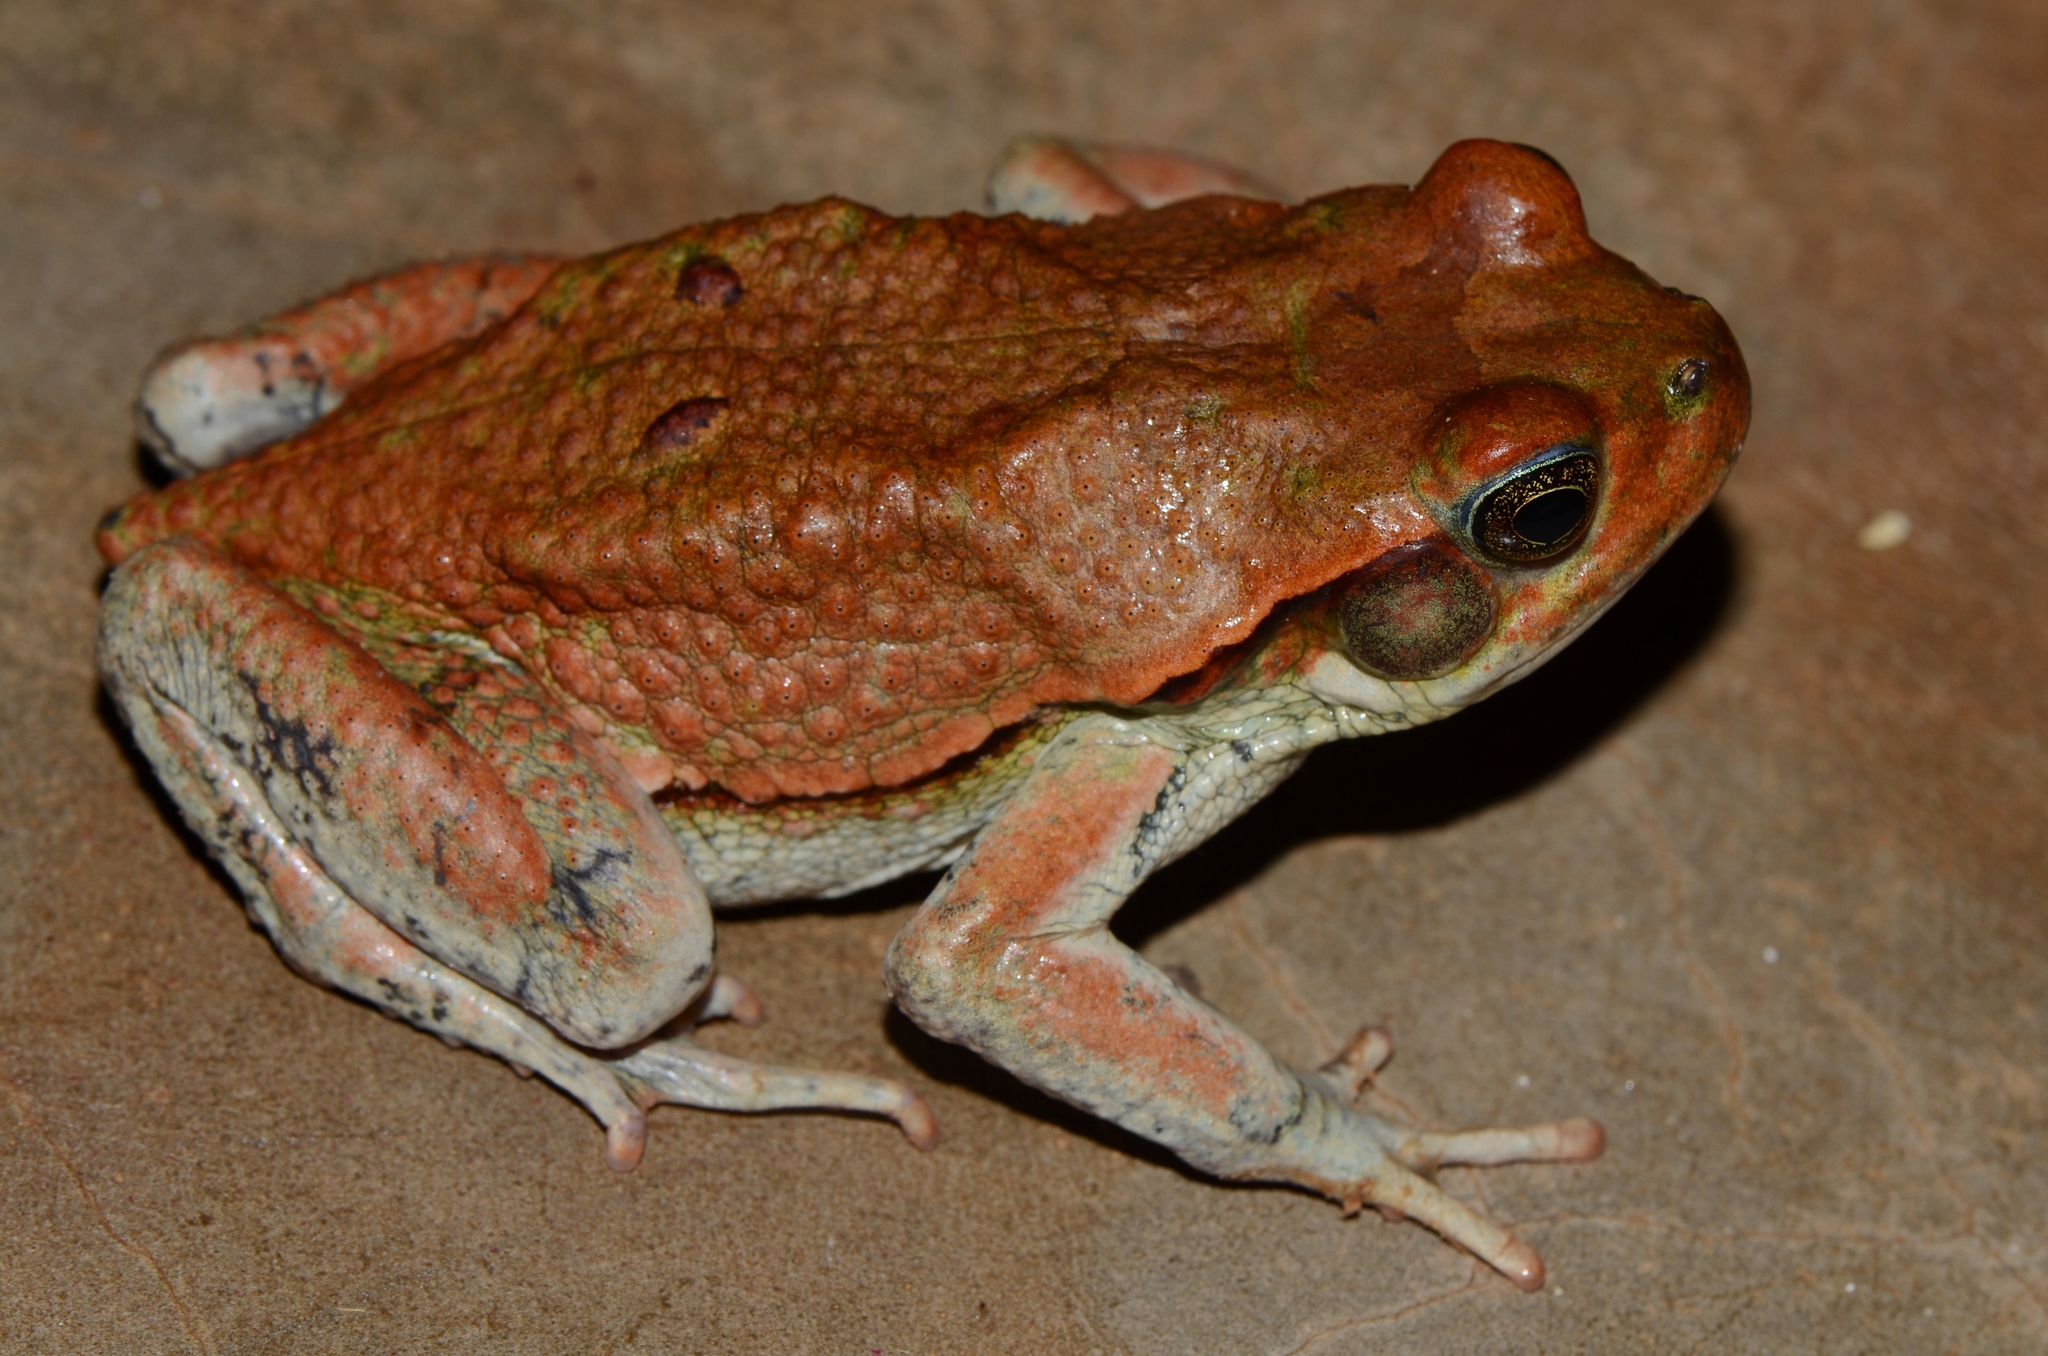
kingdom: Animalia
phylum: Chordata
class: Amphibia
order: Anura
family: Bufonidae
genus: Schismaderma
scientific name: Schismaderma carens
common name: African split-skin toad
